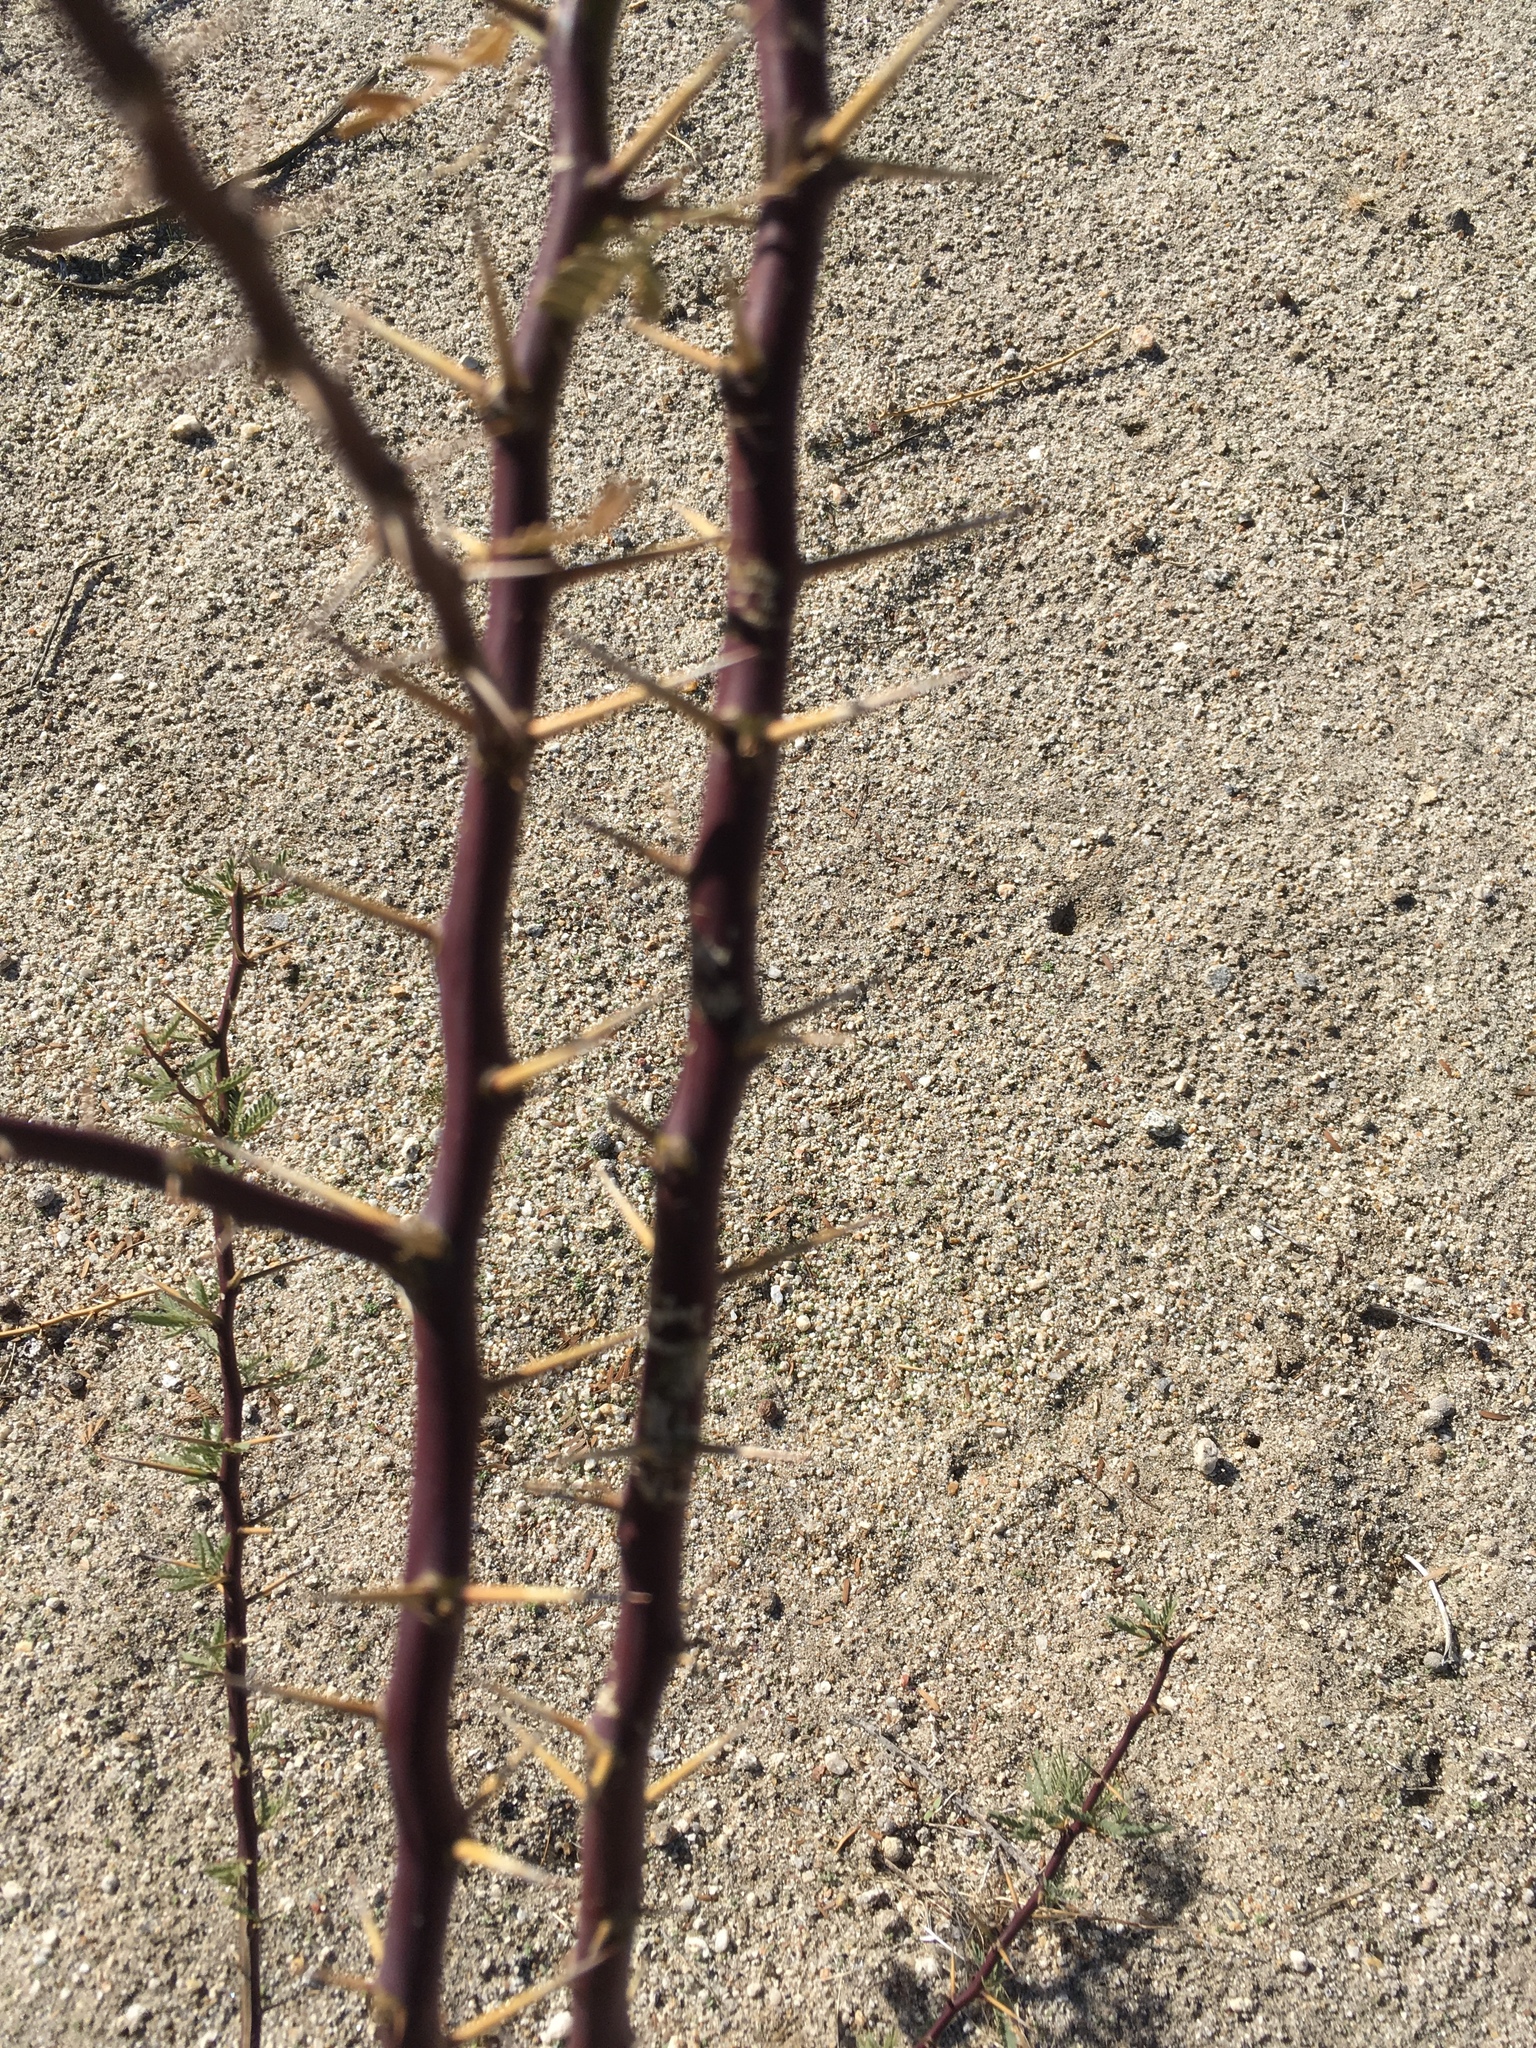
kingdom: Plantae
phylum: Tracheophyta
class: Magnoliopsida
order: Fabales
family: Fabaceae
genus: Prosopis
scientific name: Prosopis pubescens
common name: Screw-bean
